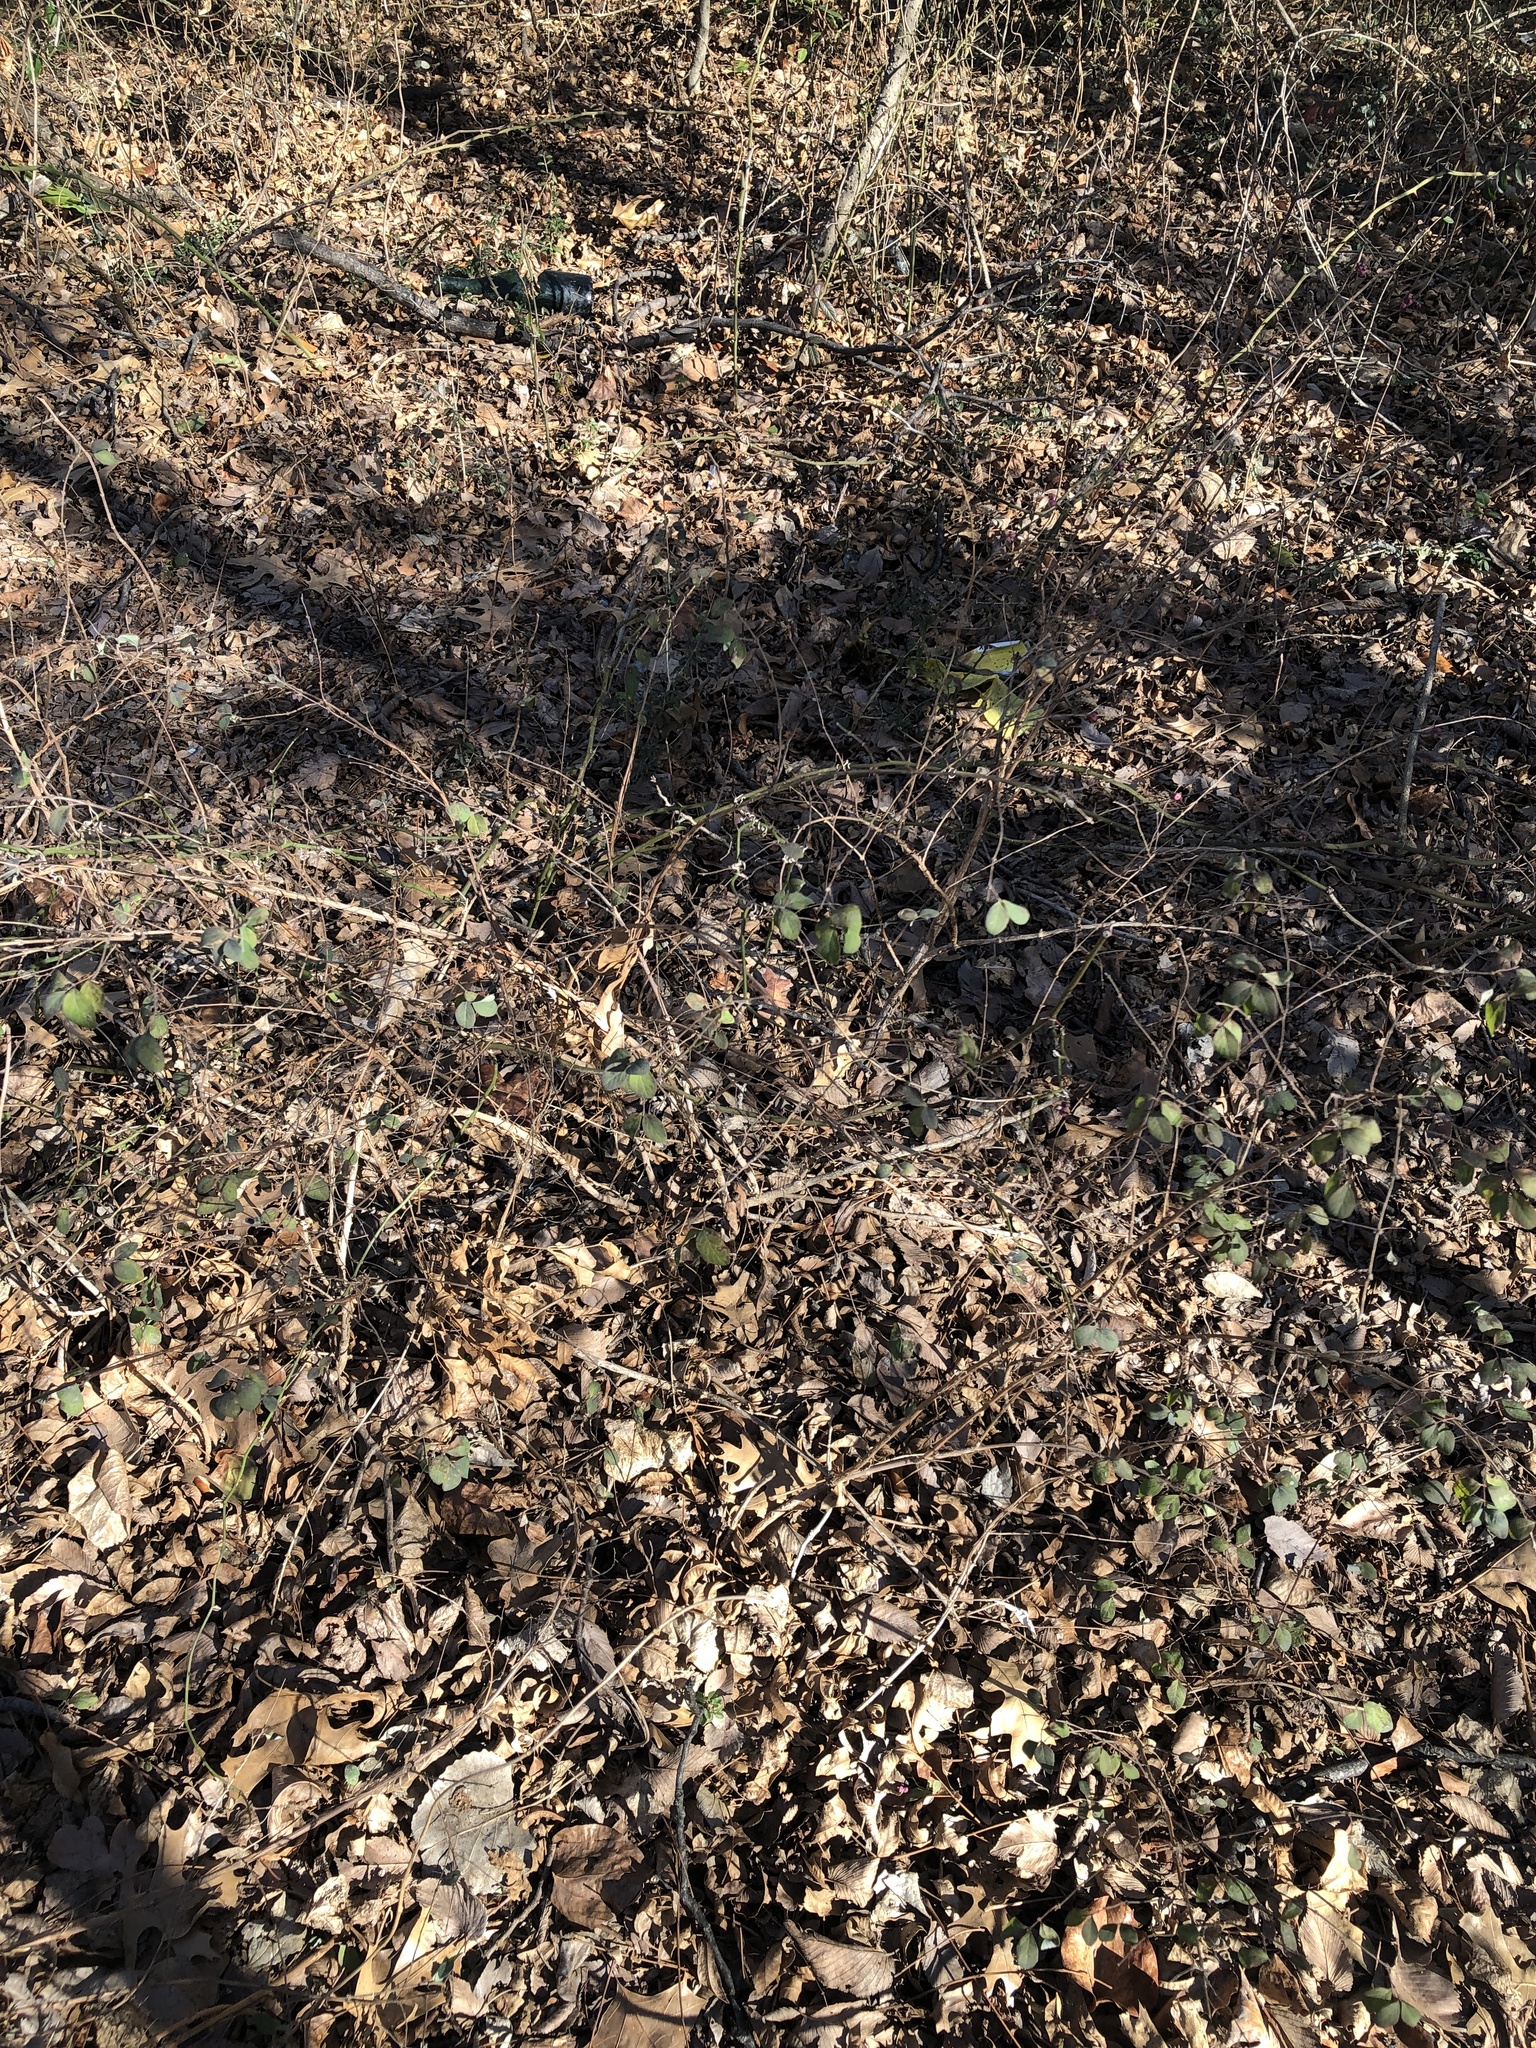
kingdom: Plantae
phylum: Tracheophyta
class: Magnoliopsida
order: Dipsacales
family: Caprifoliaceae
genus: Symphoricarpos
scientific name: Symphoricarpos orbiculatus
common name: Coralberry
